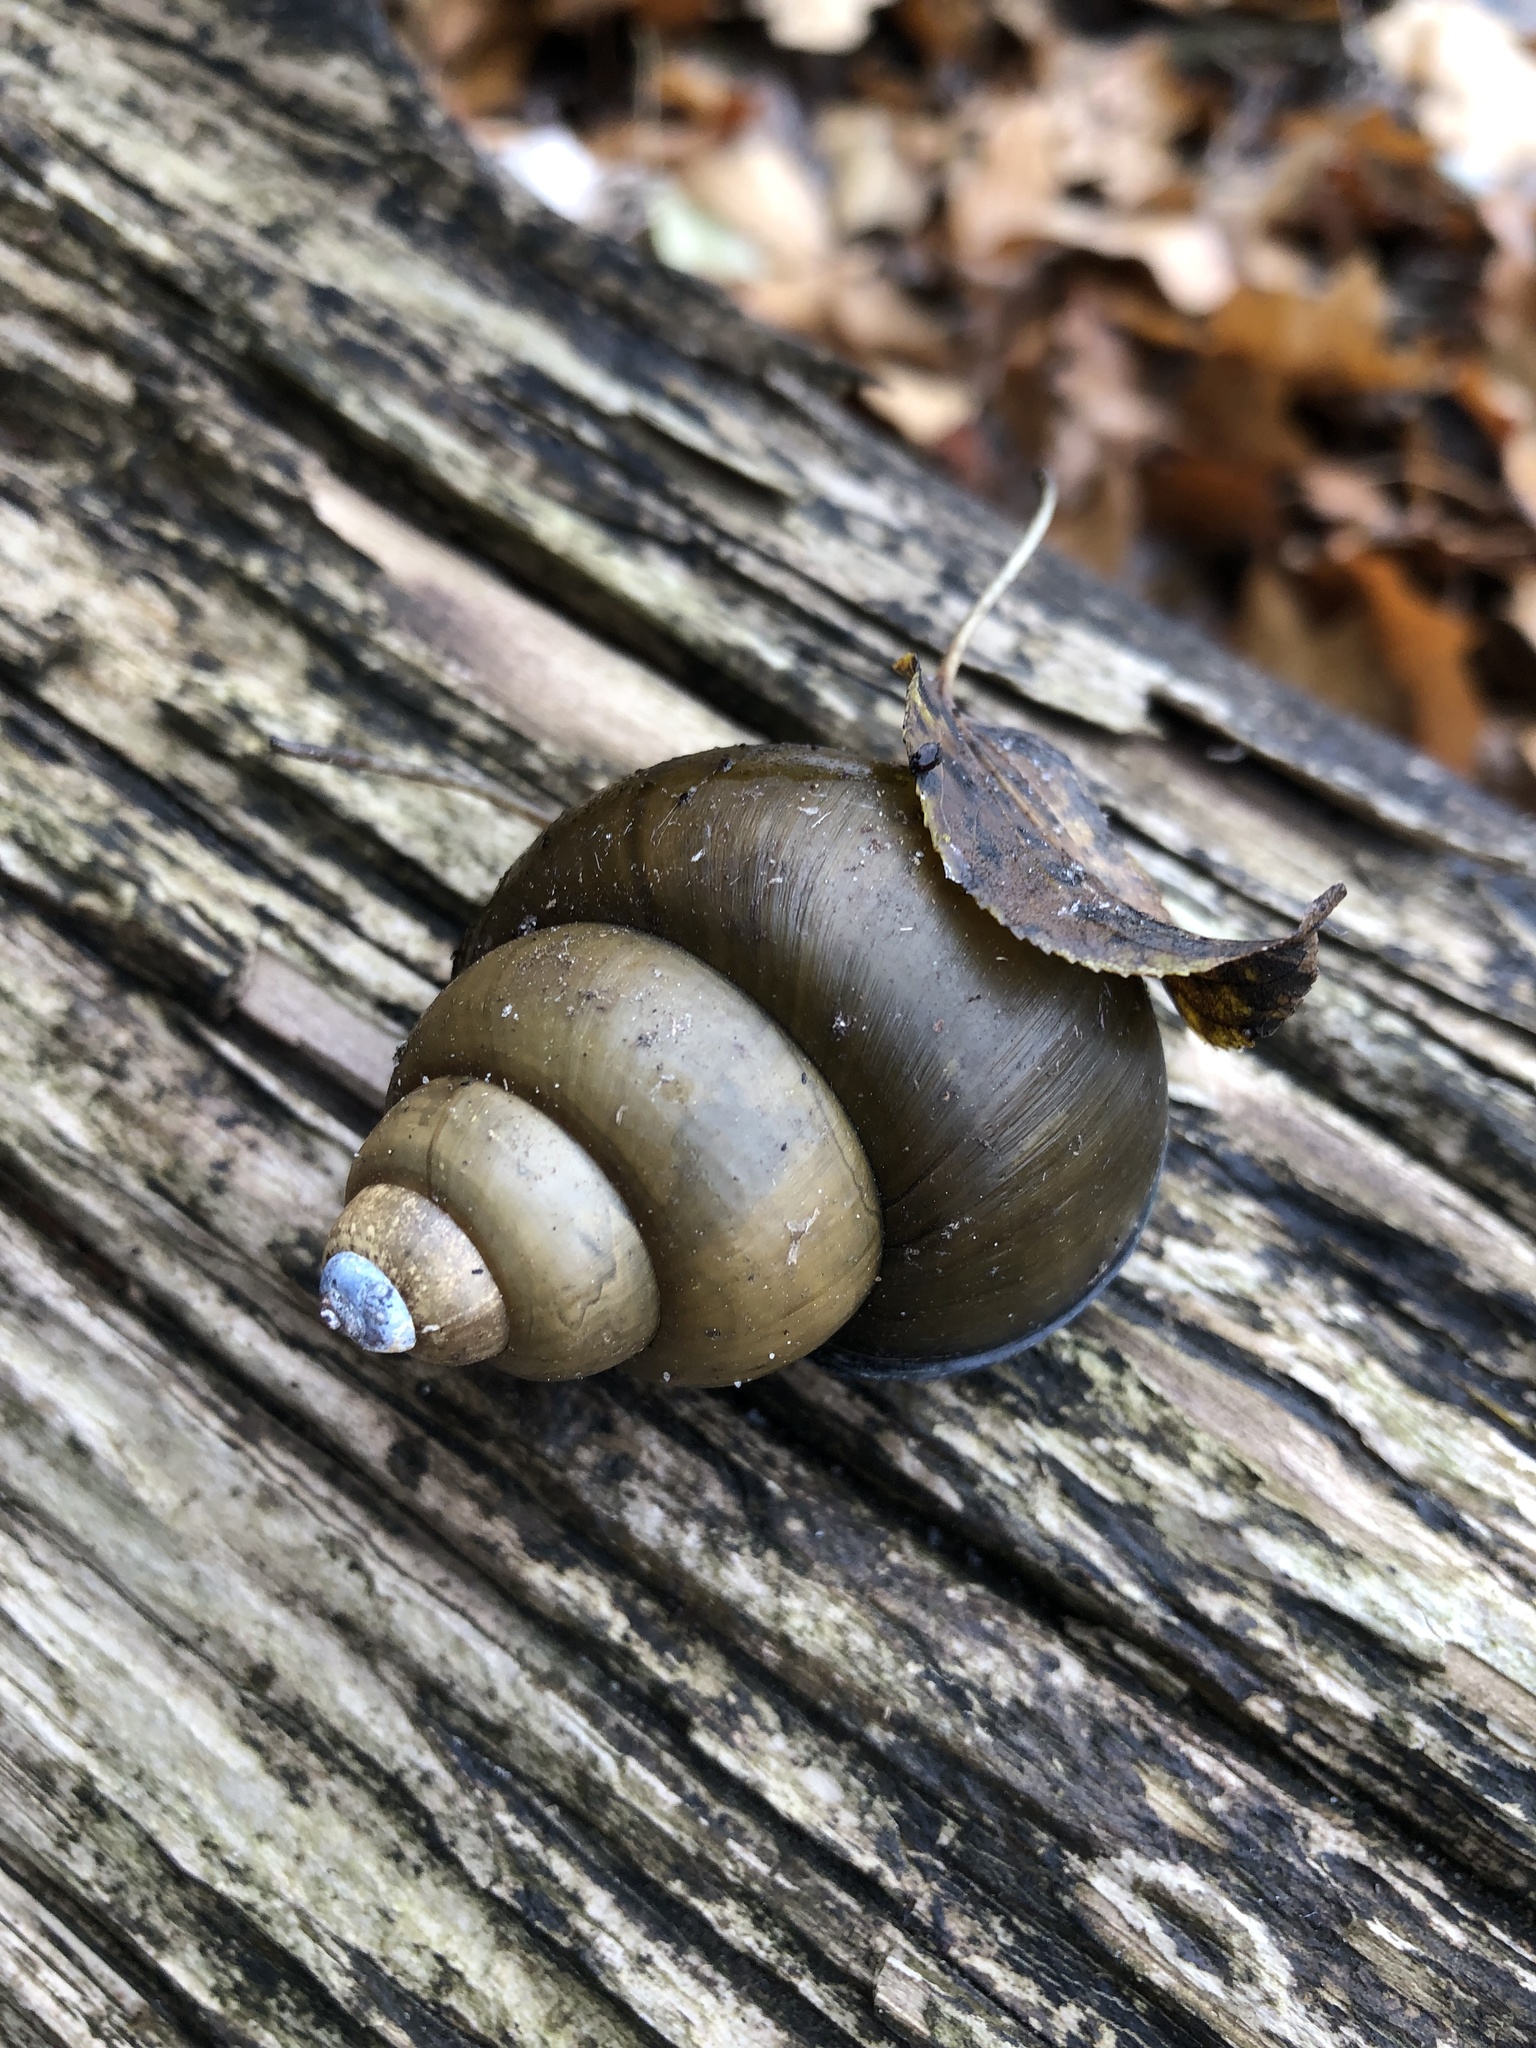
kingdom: Animalia
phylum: Mollusca
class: Gastropoda
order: Architaenioglossa
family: Viviparidae
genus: Cipangopaludina
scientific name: Cipangopaludina chinensis
